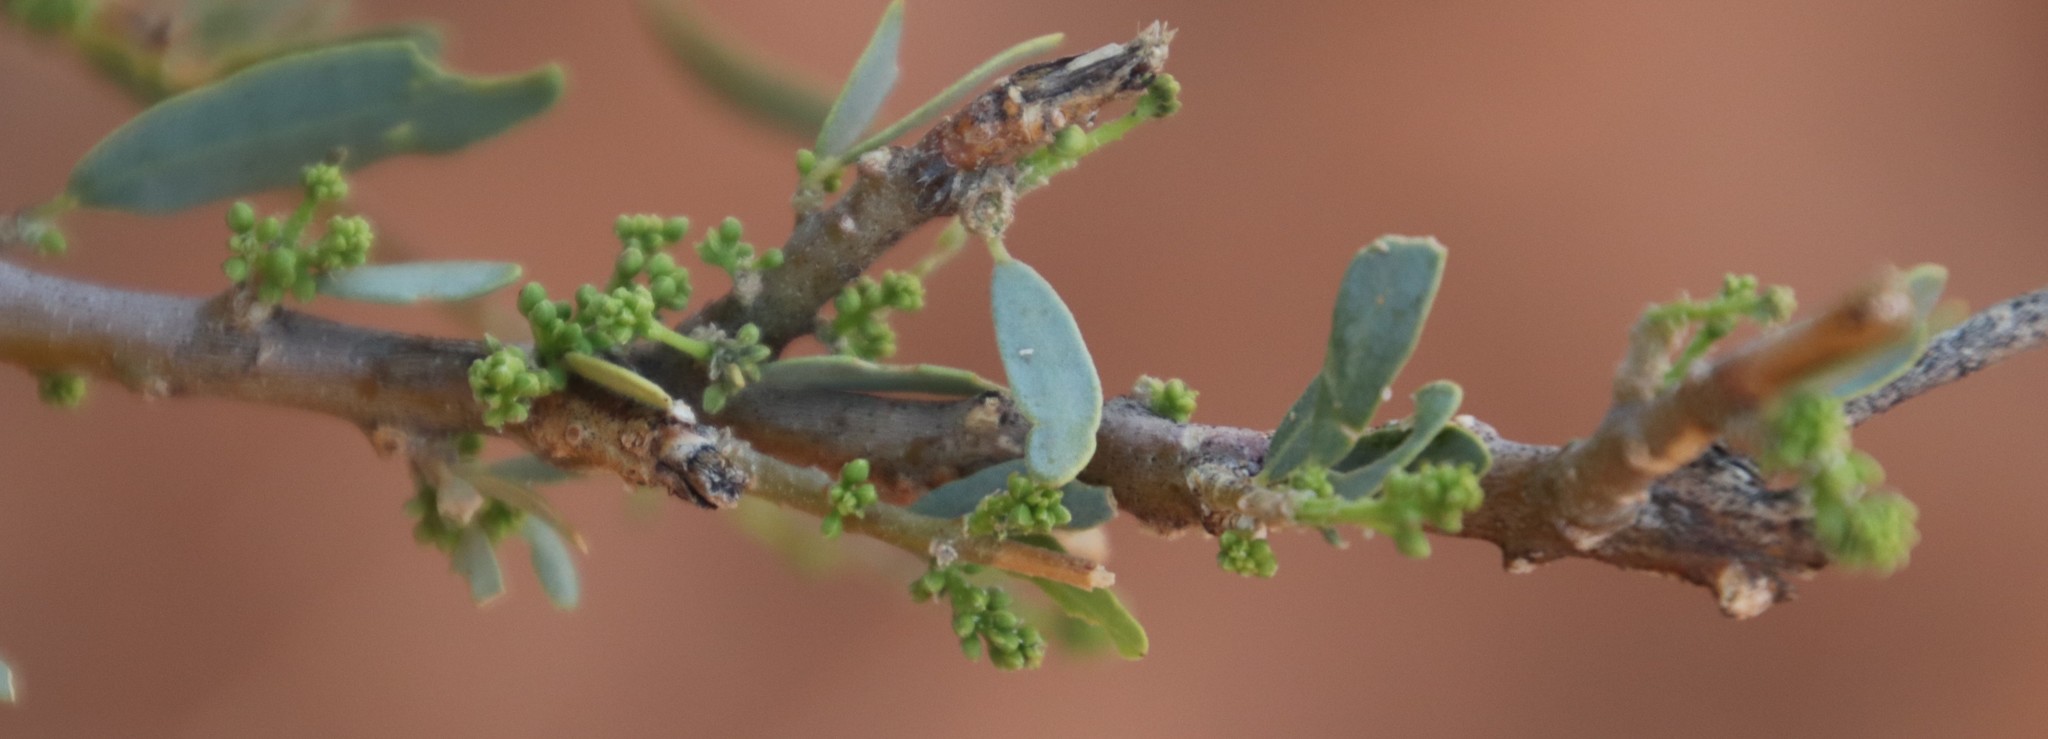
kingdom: Plantae
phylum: Tracheophyta
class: Magnoliopsida
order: Brassicales
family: Capparaceae
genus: Boscia
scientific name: Boscia albitrunca
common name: Caper bush
